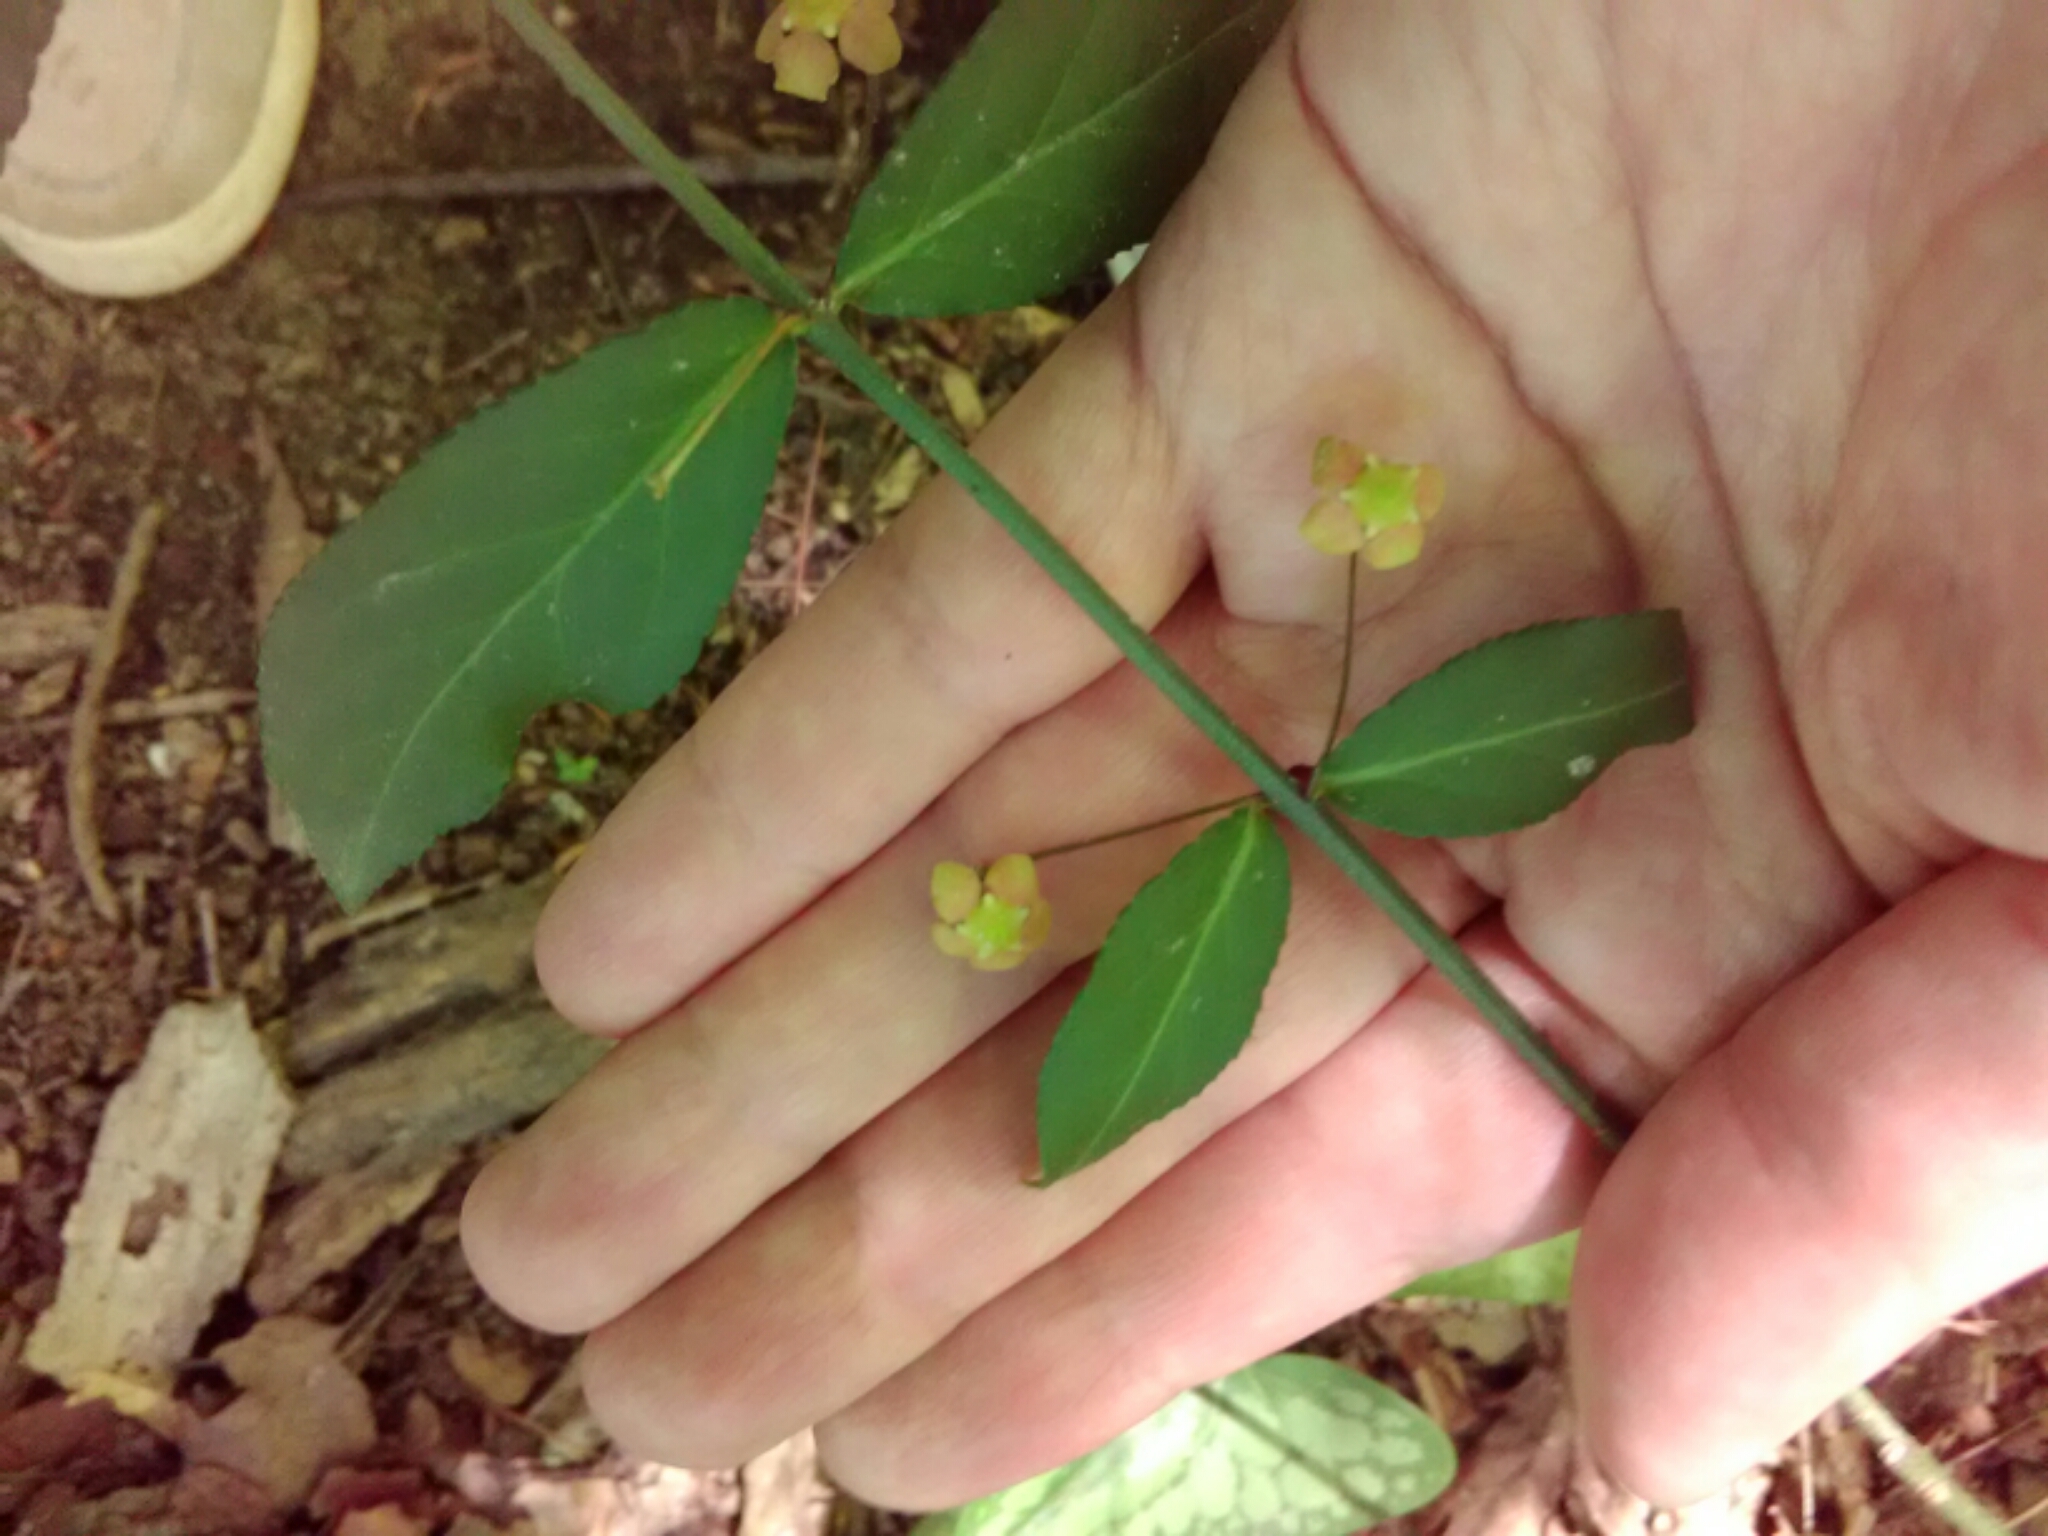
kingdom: Plantae
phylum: Tracheophyta
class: Magnoliopsida
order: Celastrales
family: Celastraceae
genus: Euonymus
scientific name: Euonymus americanus
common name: Bursting-heart
